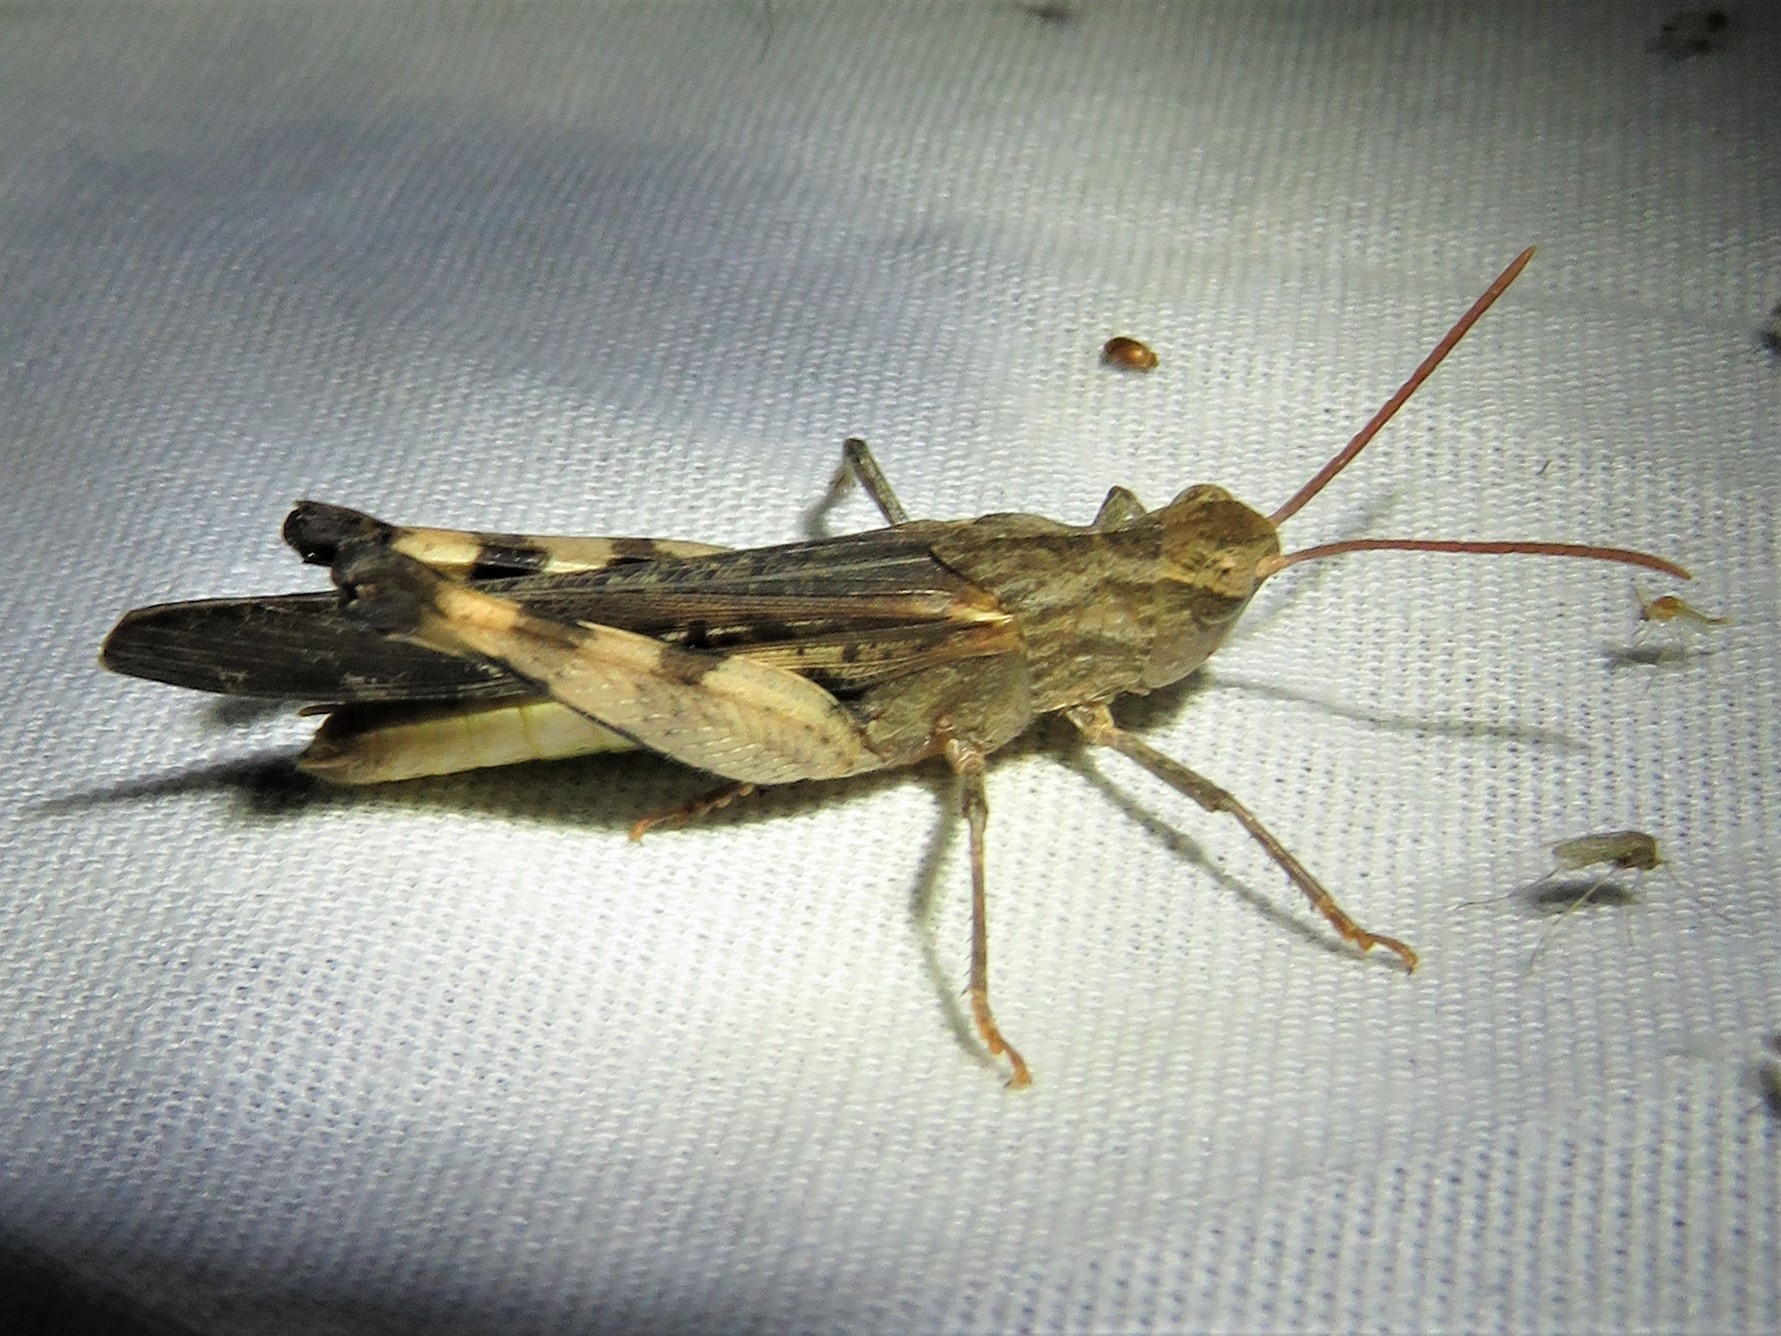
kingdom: Animalia
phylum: Arthropoda
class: Insecta
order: Orthoptera
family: Acrididae
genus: Chortophaga
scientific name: Chortophaga viridifasciata
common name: Green-striped grasshopper
